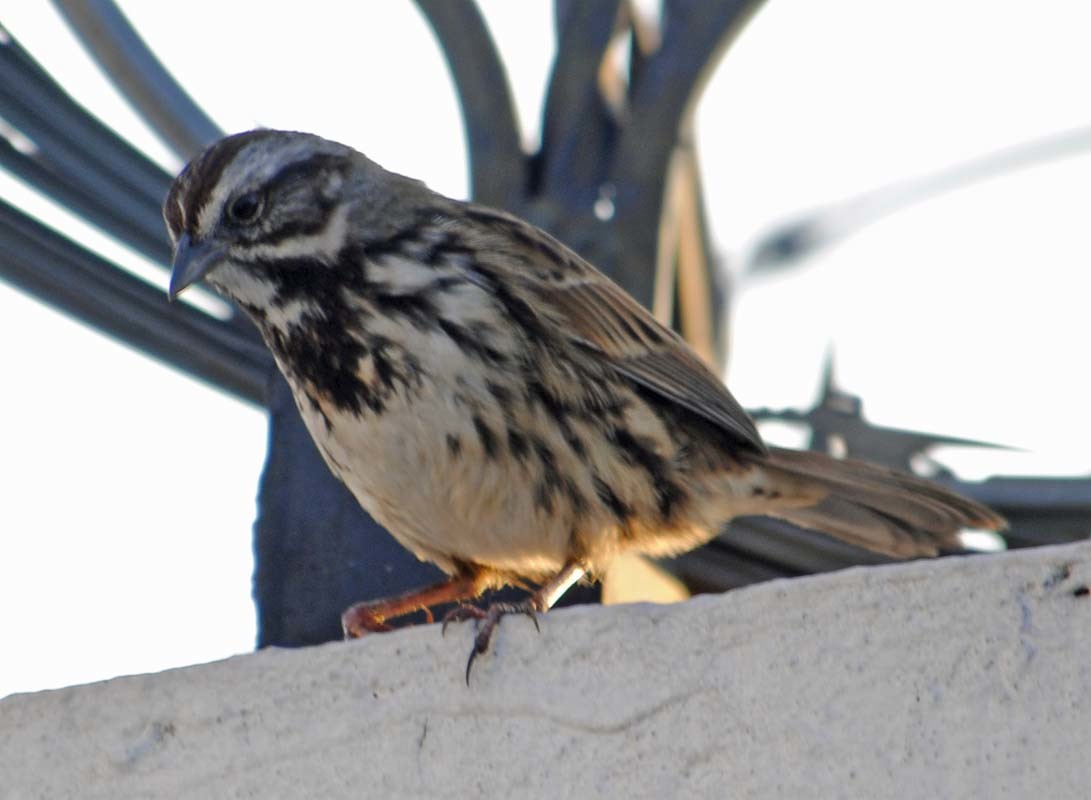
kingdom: Animalia
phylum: Chordata
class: Aves
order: Passeriformes
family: Passerellidae
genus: Melospiza
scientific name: Melospiza melodia
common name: Song sparrow
